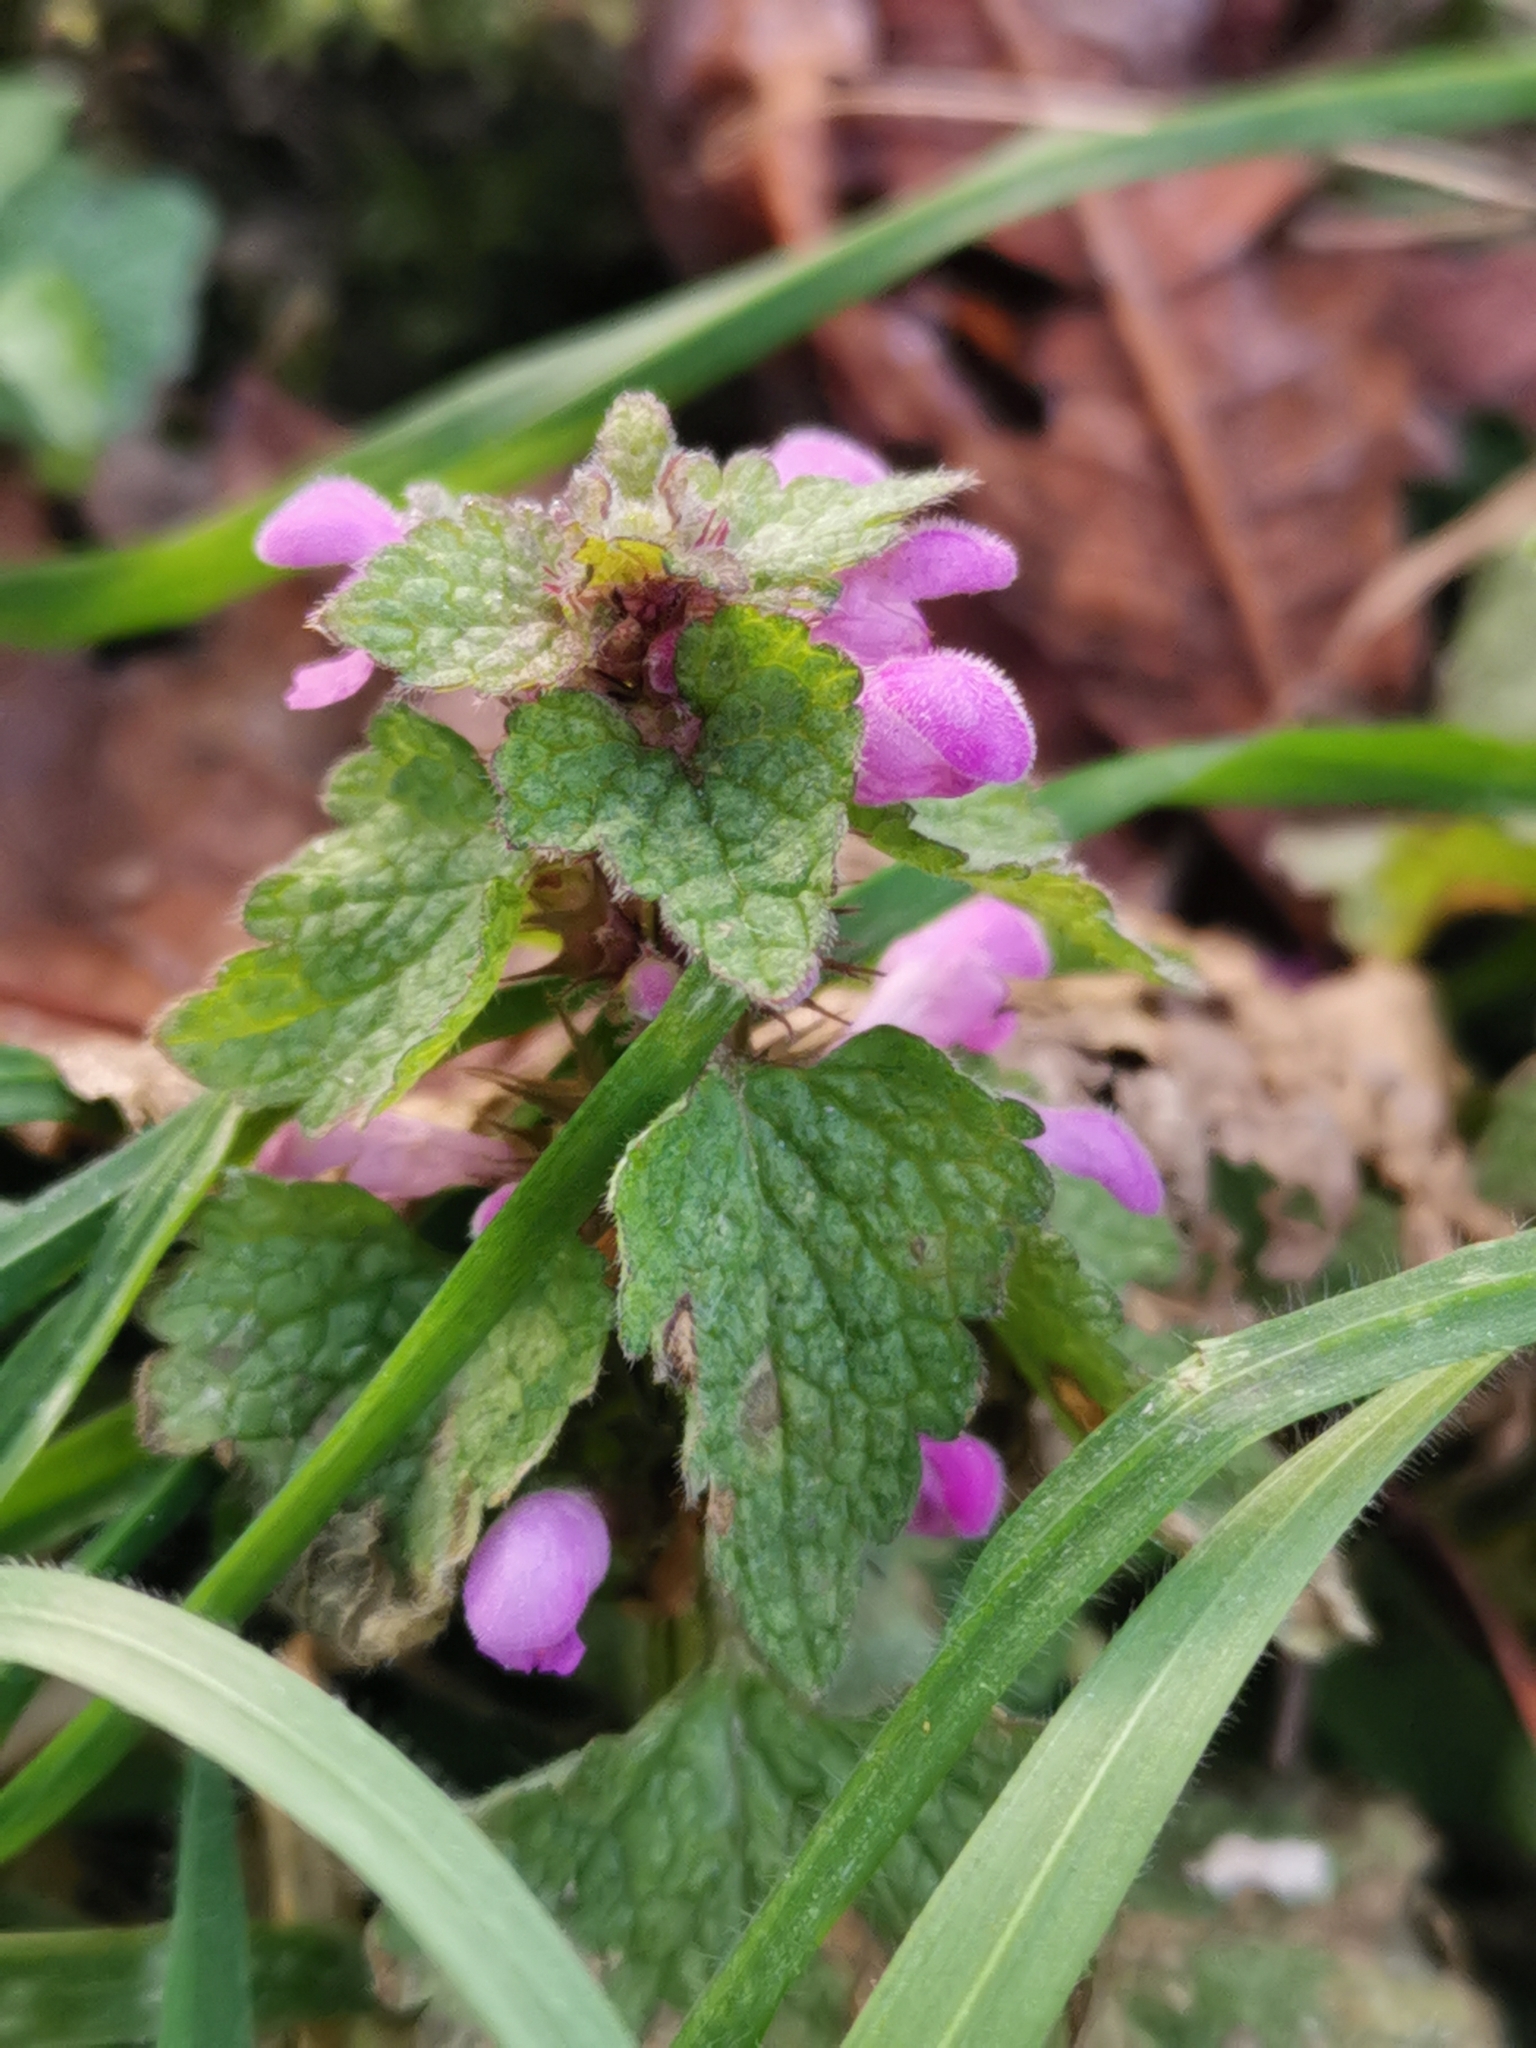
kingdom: Plantae
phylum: Tracheophyta
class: Magnoliopsida
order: Lamiales
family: Lamiaceae
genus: Lamium
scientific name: Lamium purpureum
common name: Red dead-nettle
